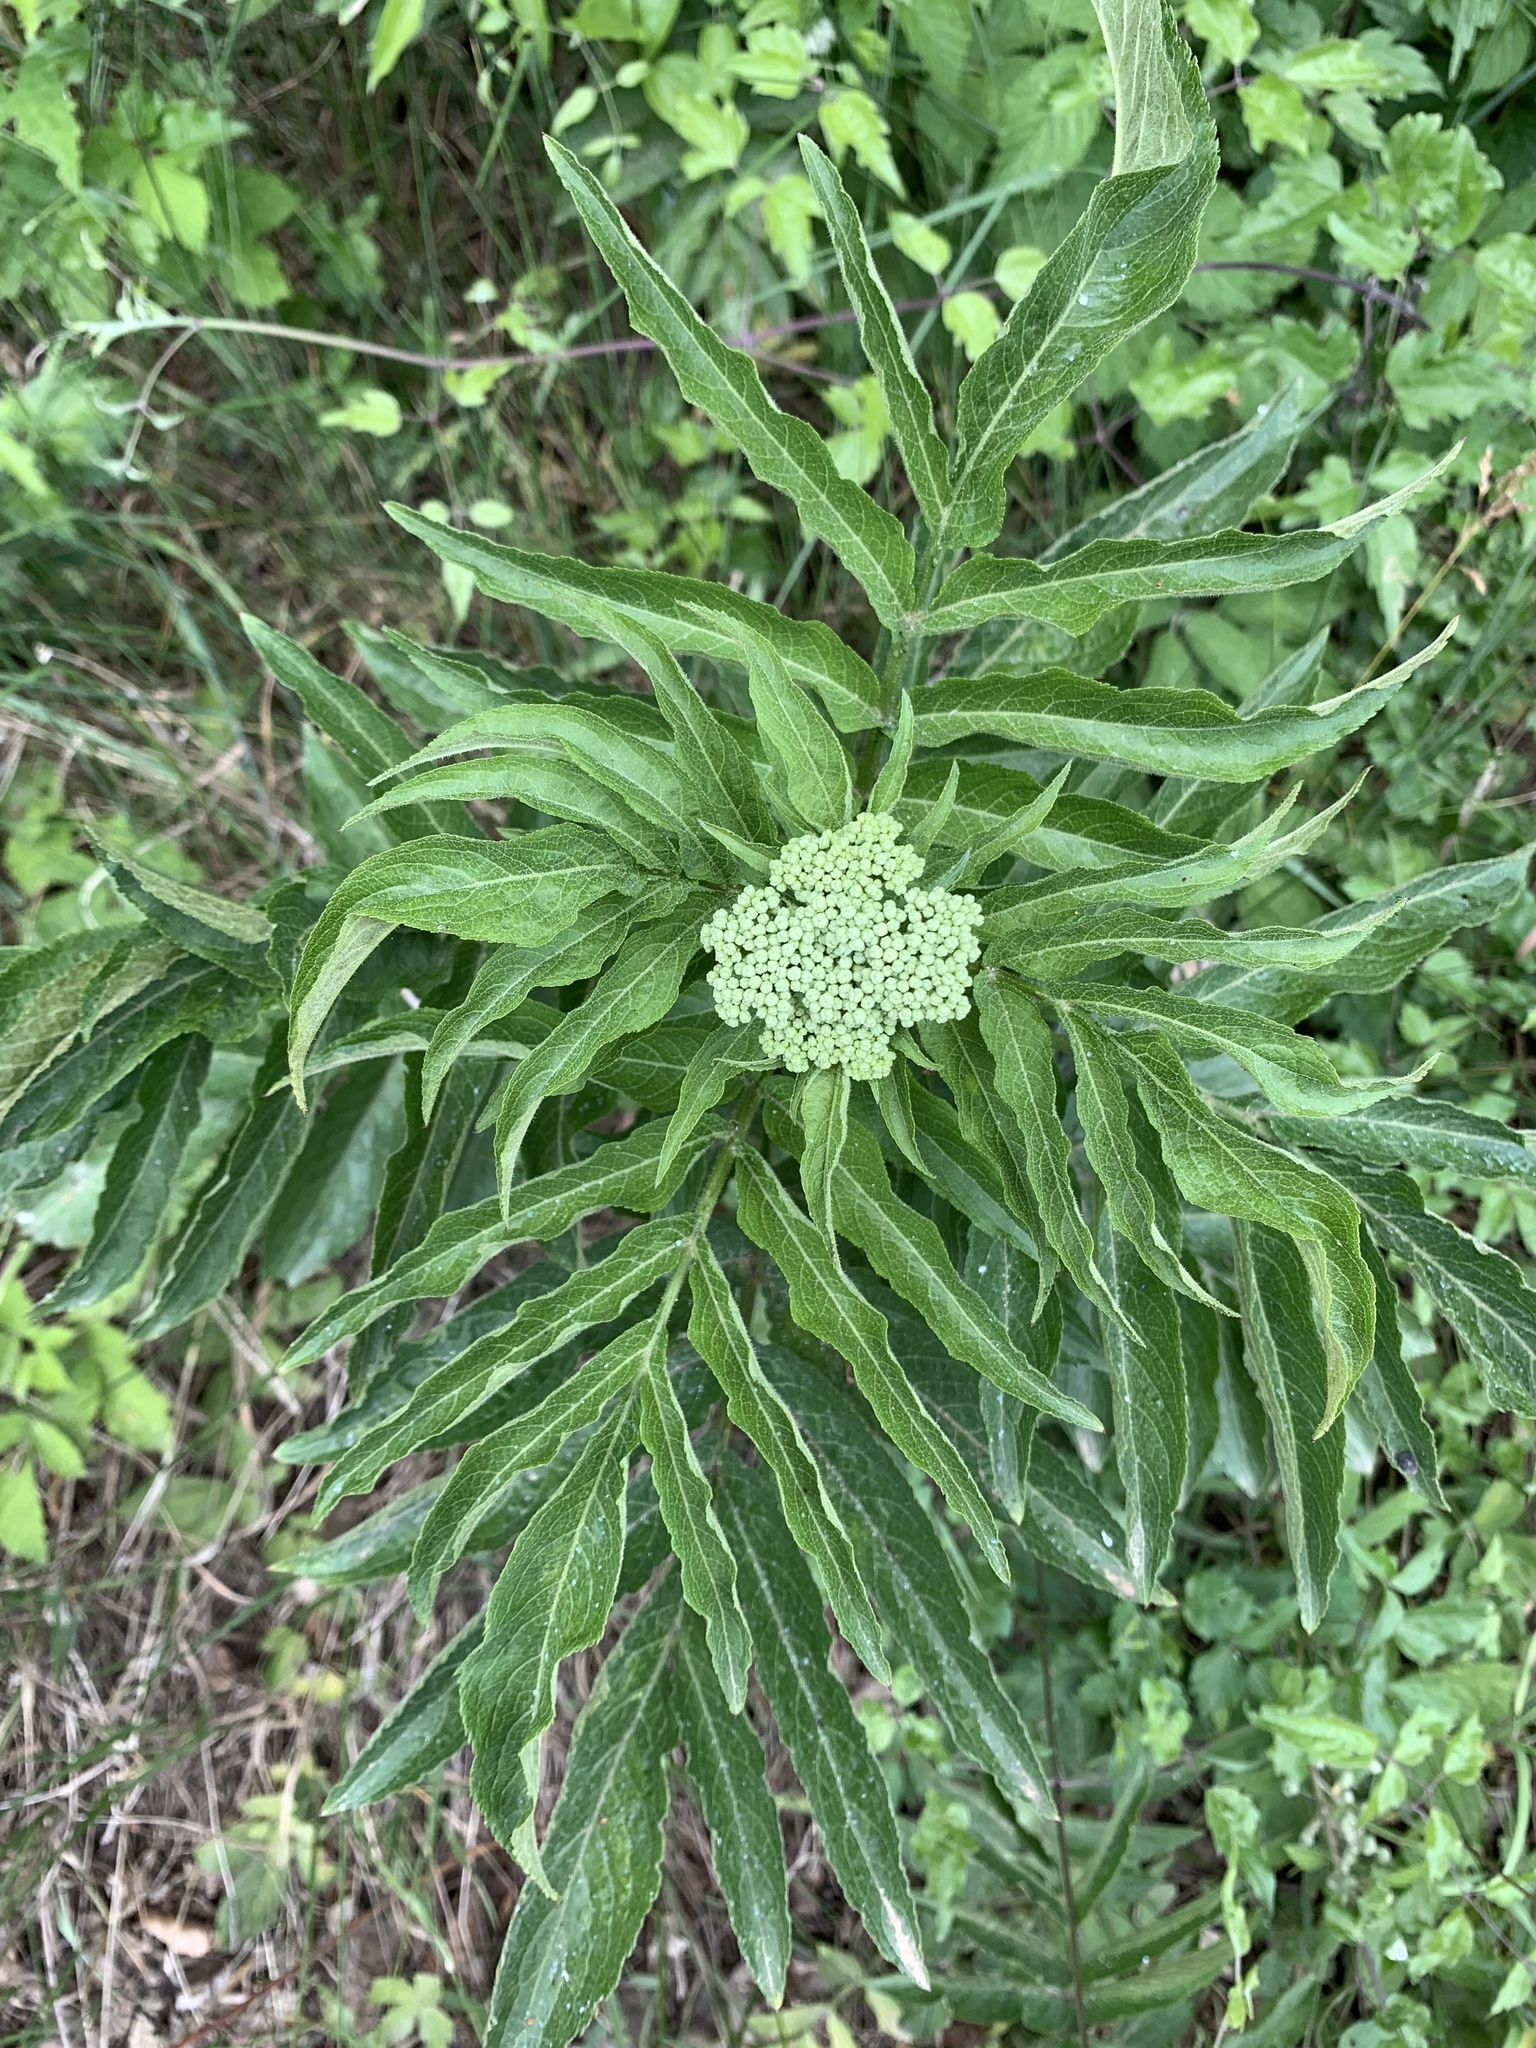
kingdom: Plantae
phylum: Tracheophyta
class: Magnoliopsida
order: Dipsacales
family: Viburnaceae
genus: Sambucus
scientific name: Sambucus ebulus
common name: Dwarf elder
